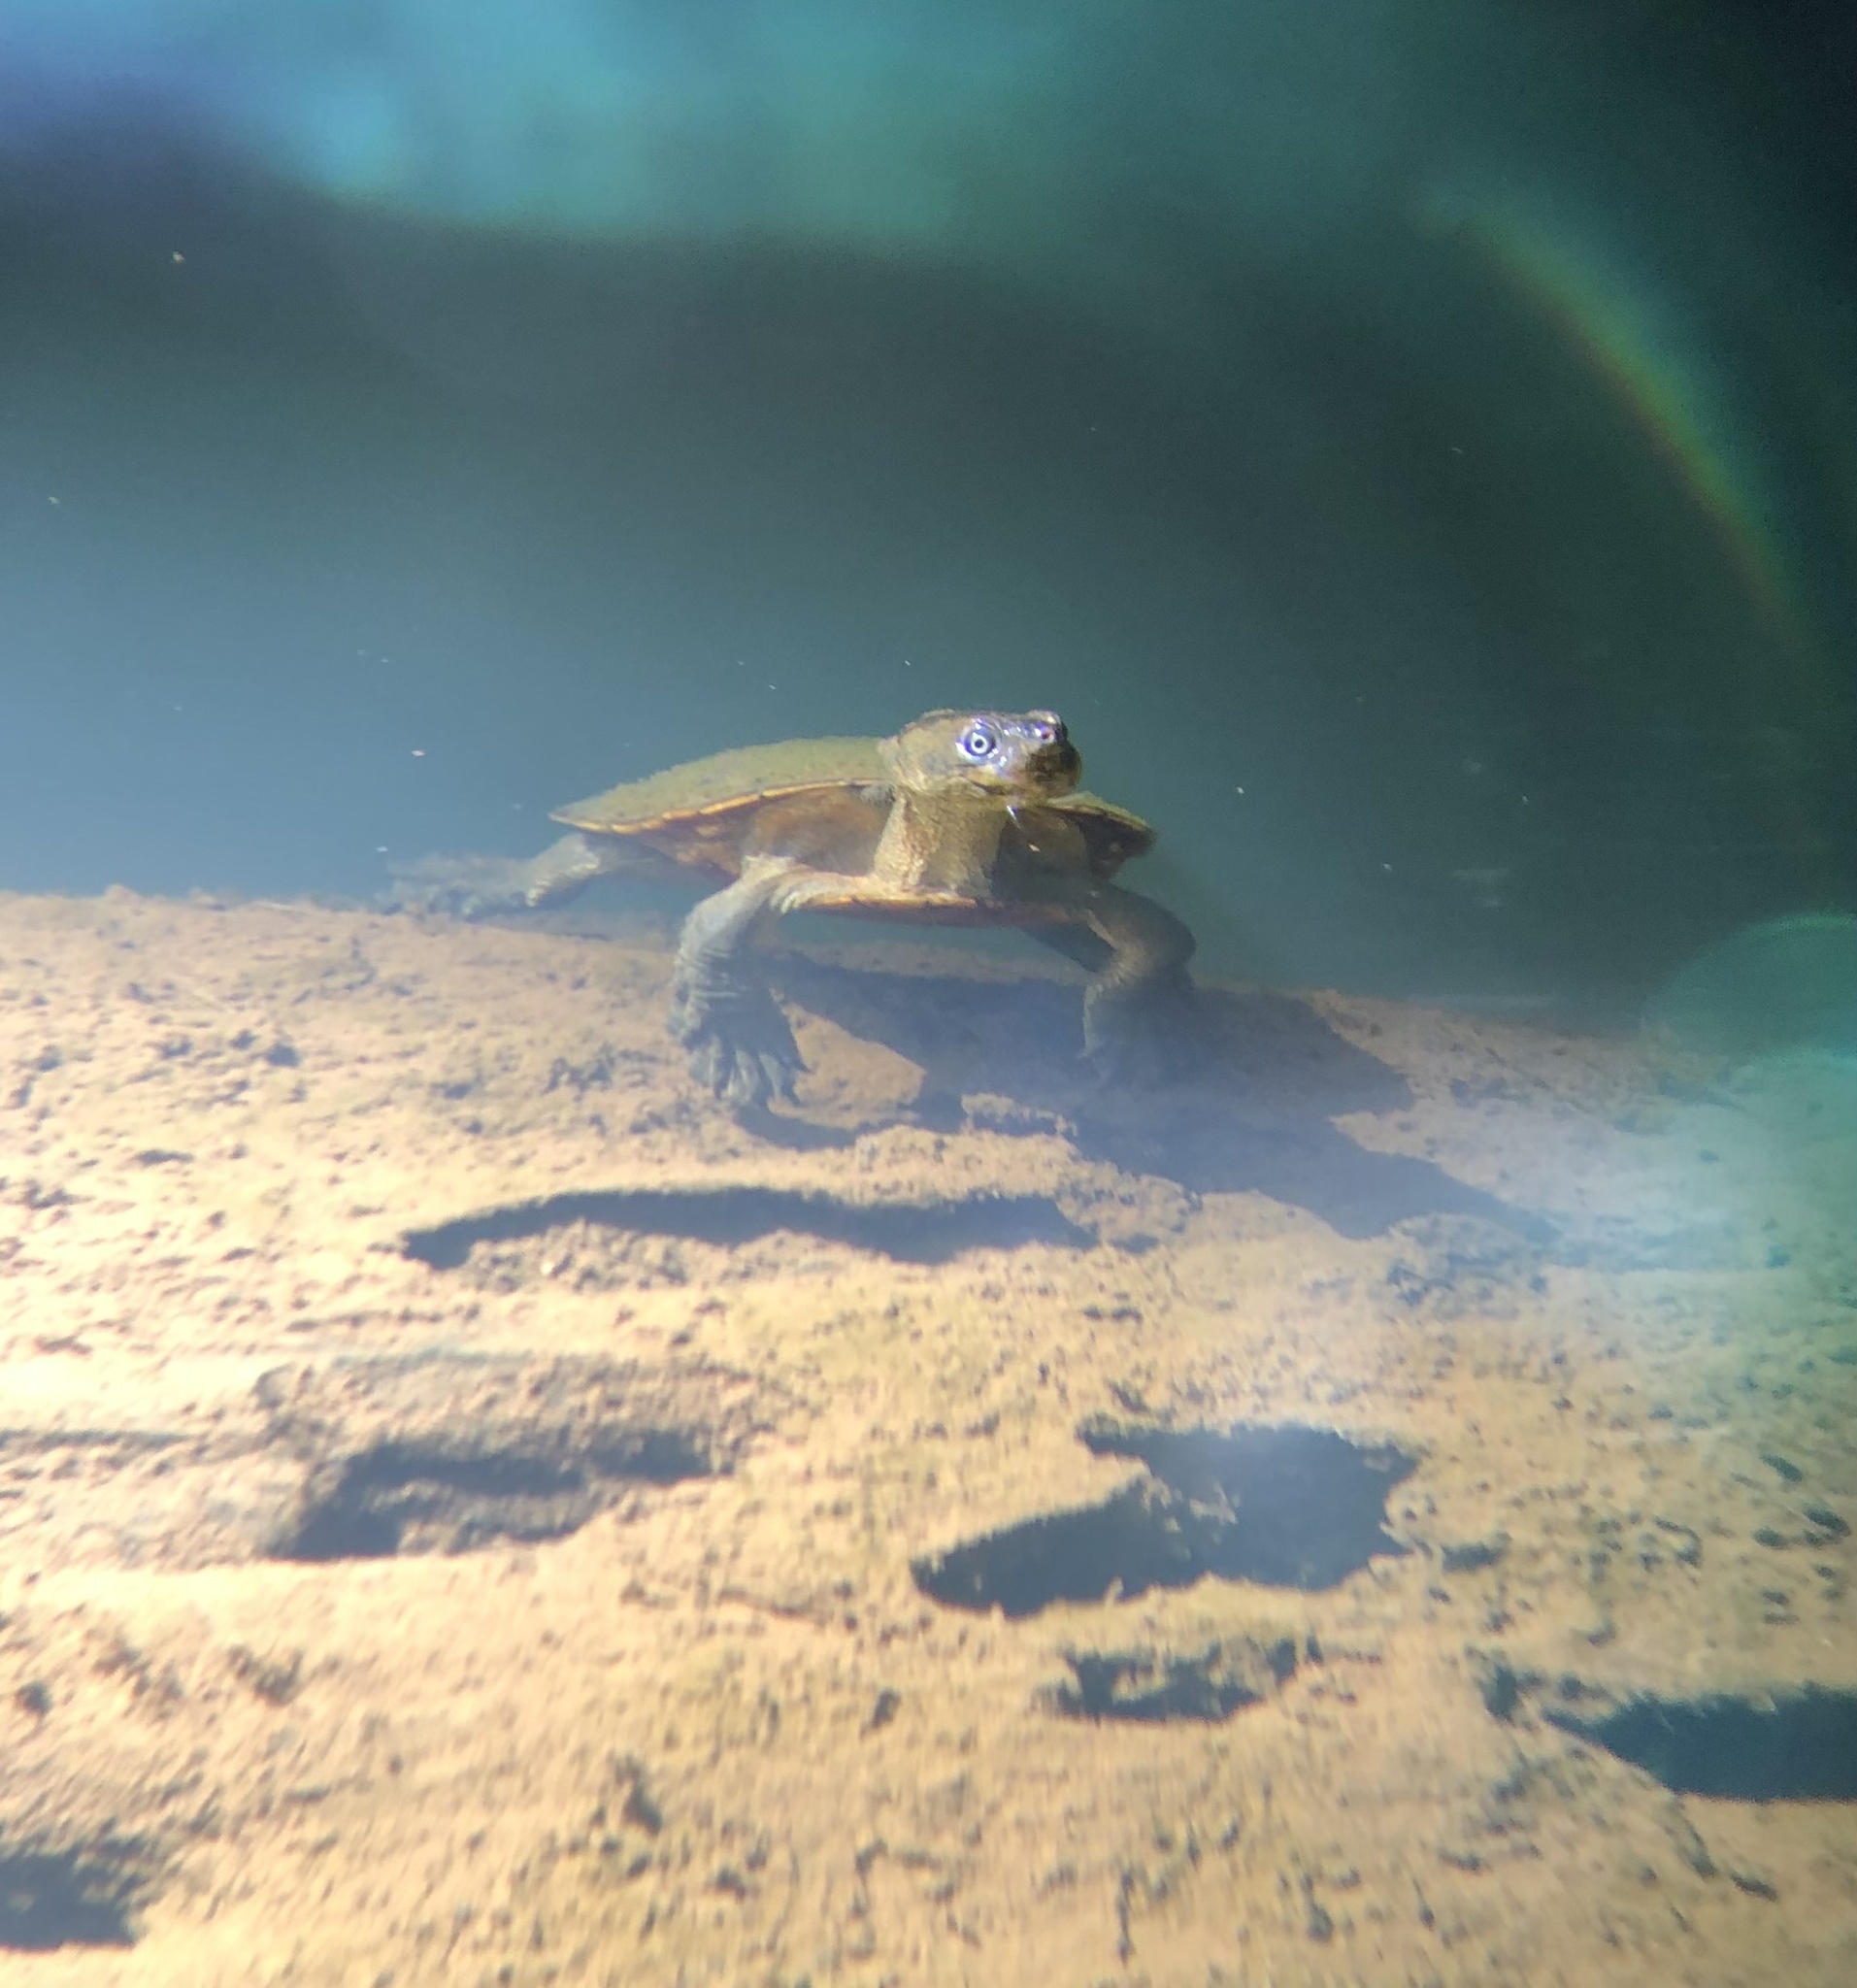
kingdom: Animalia
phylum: Chordata
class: Testudines
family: Chelidae
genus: Myuchelys
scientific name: Myuchelys latisternum
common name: Serrated snapping turtle
